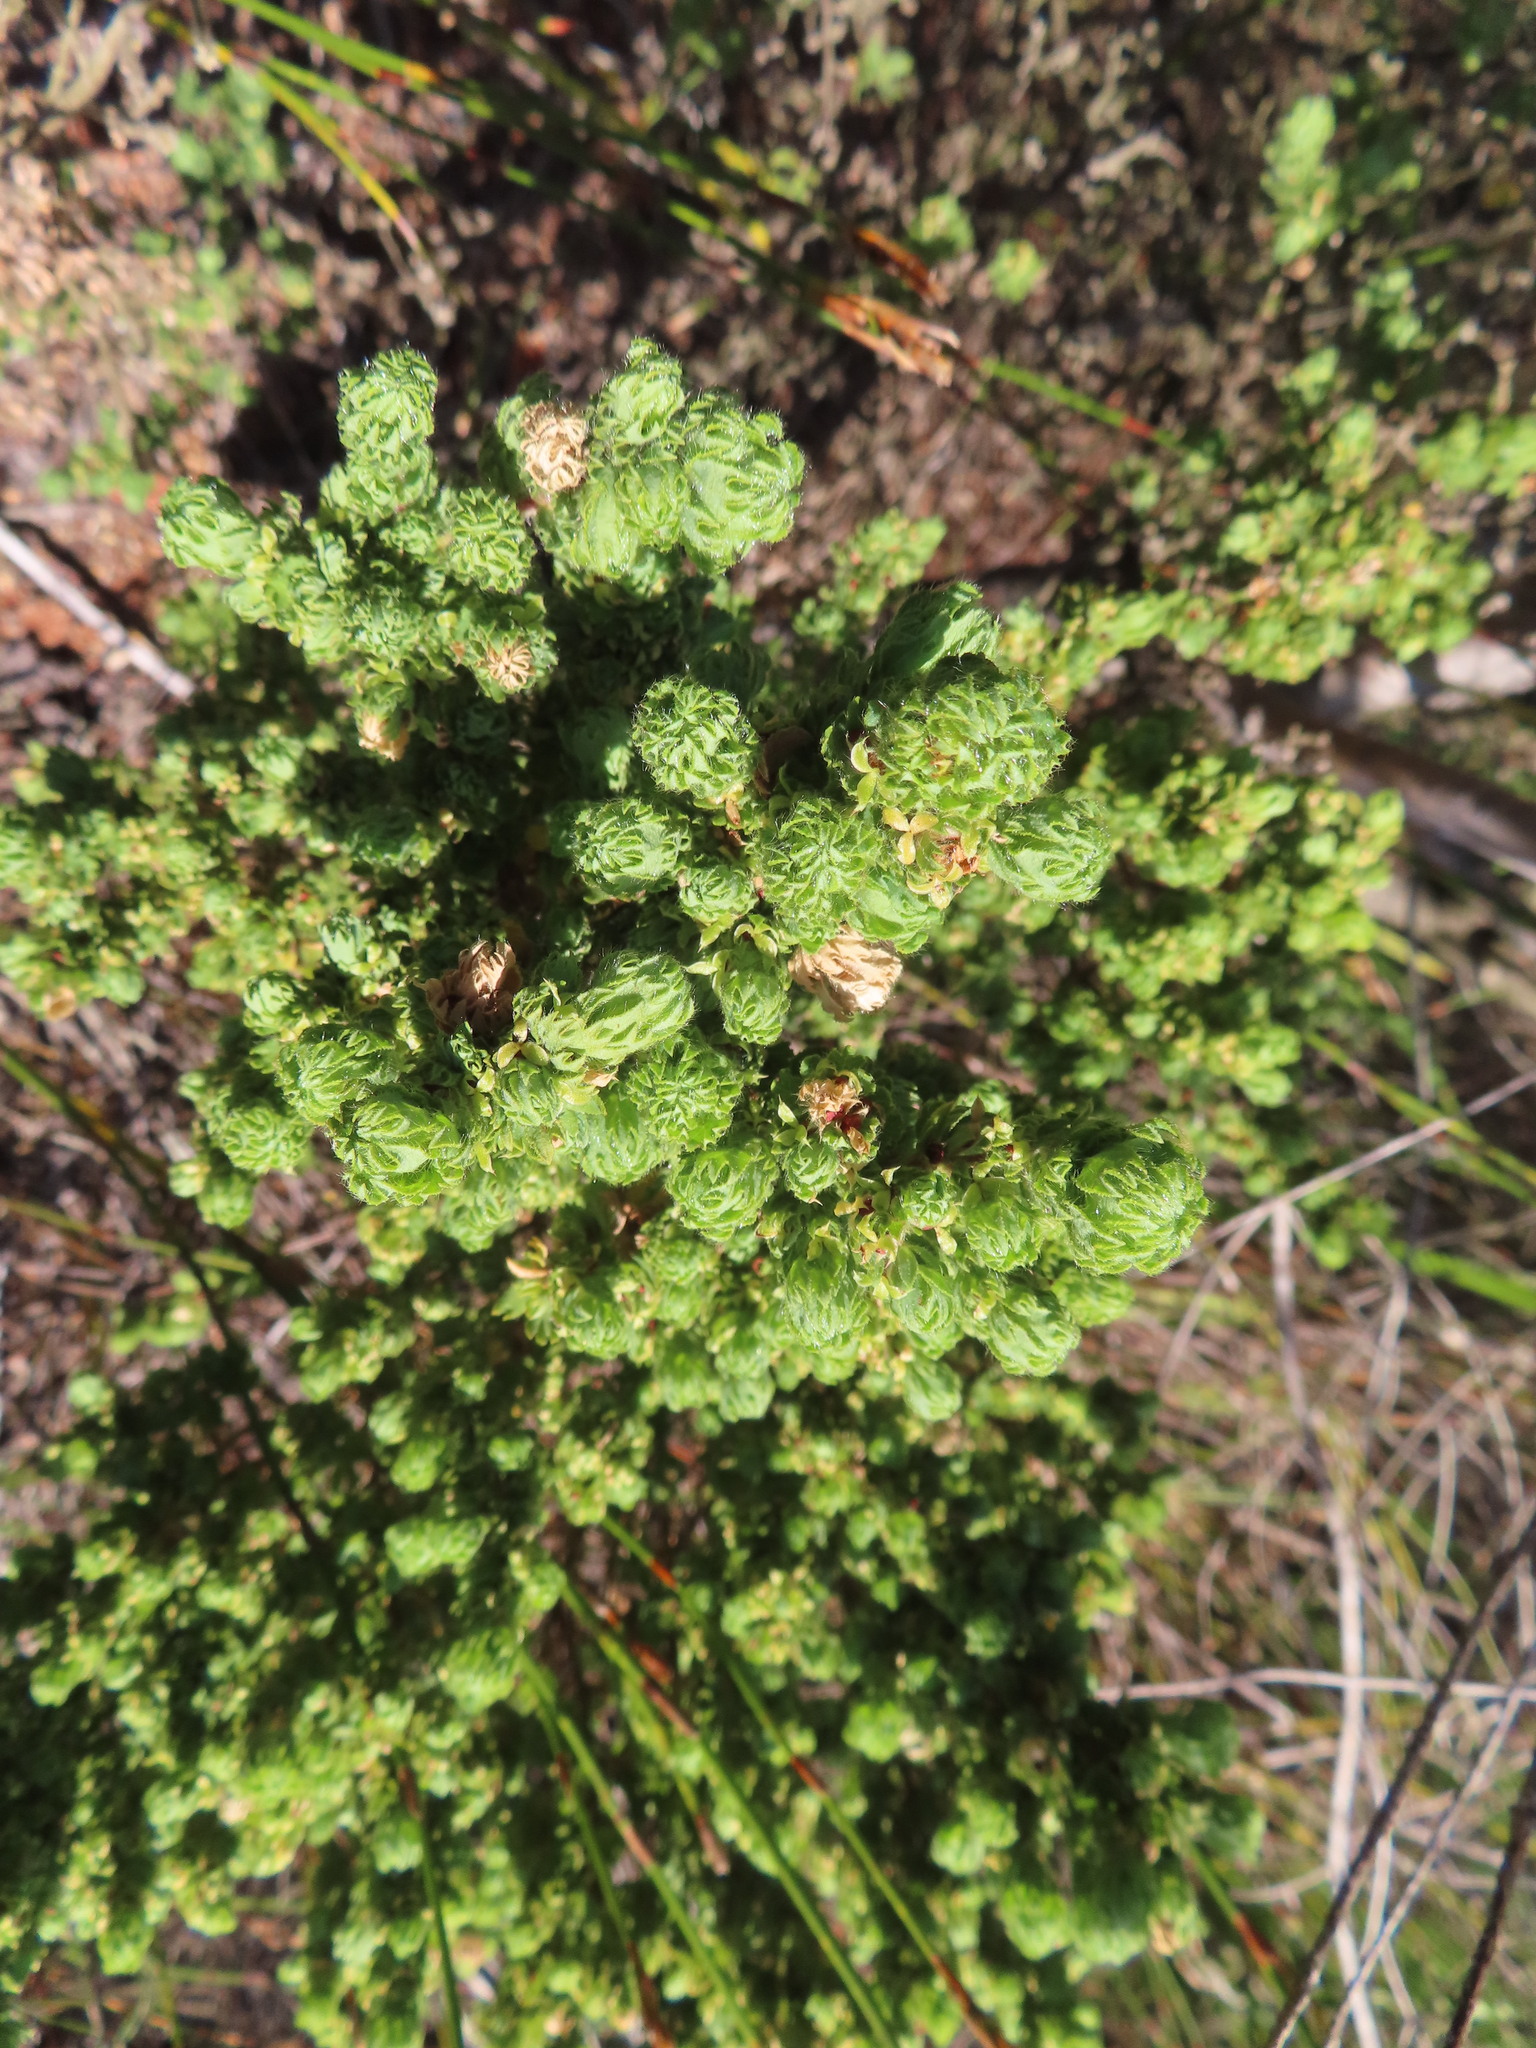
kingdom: Plantae
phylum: Tracheophyta
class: Magnoliopsida
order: Rosales
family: Rosaceae
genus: Cliffortia
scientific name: Cliffortia polygonifolia
